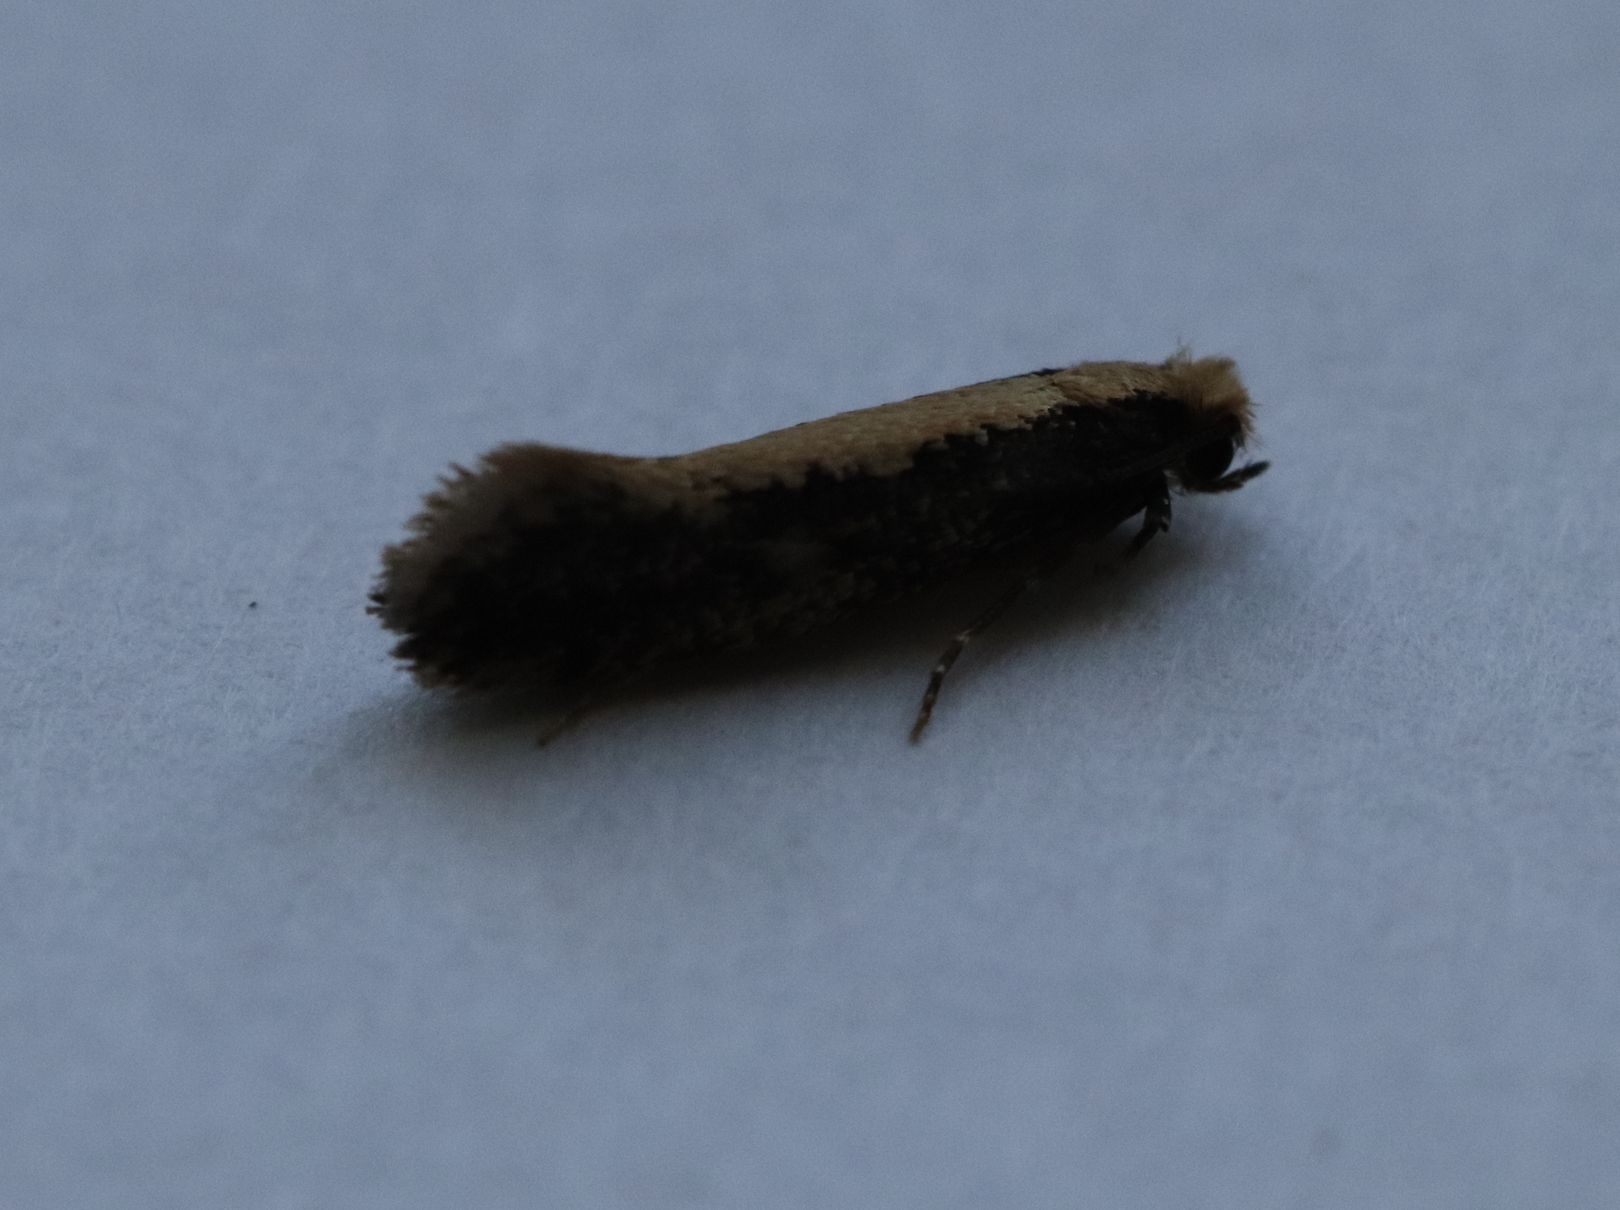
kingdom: Animalia
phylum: Arthropoda
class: Insecta
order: Lepidoptera
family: Tineidae
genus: Monopis
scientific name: Monopis obviella
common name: Tineid moth
